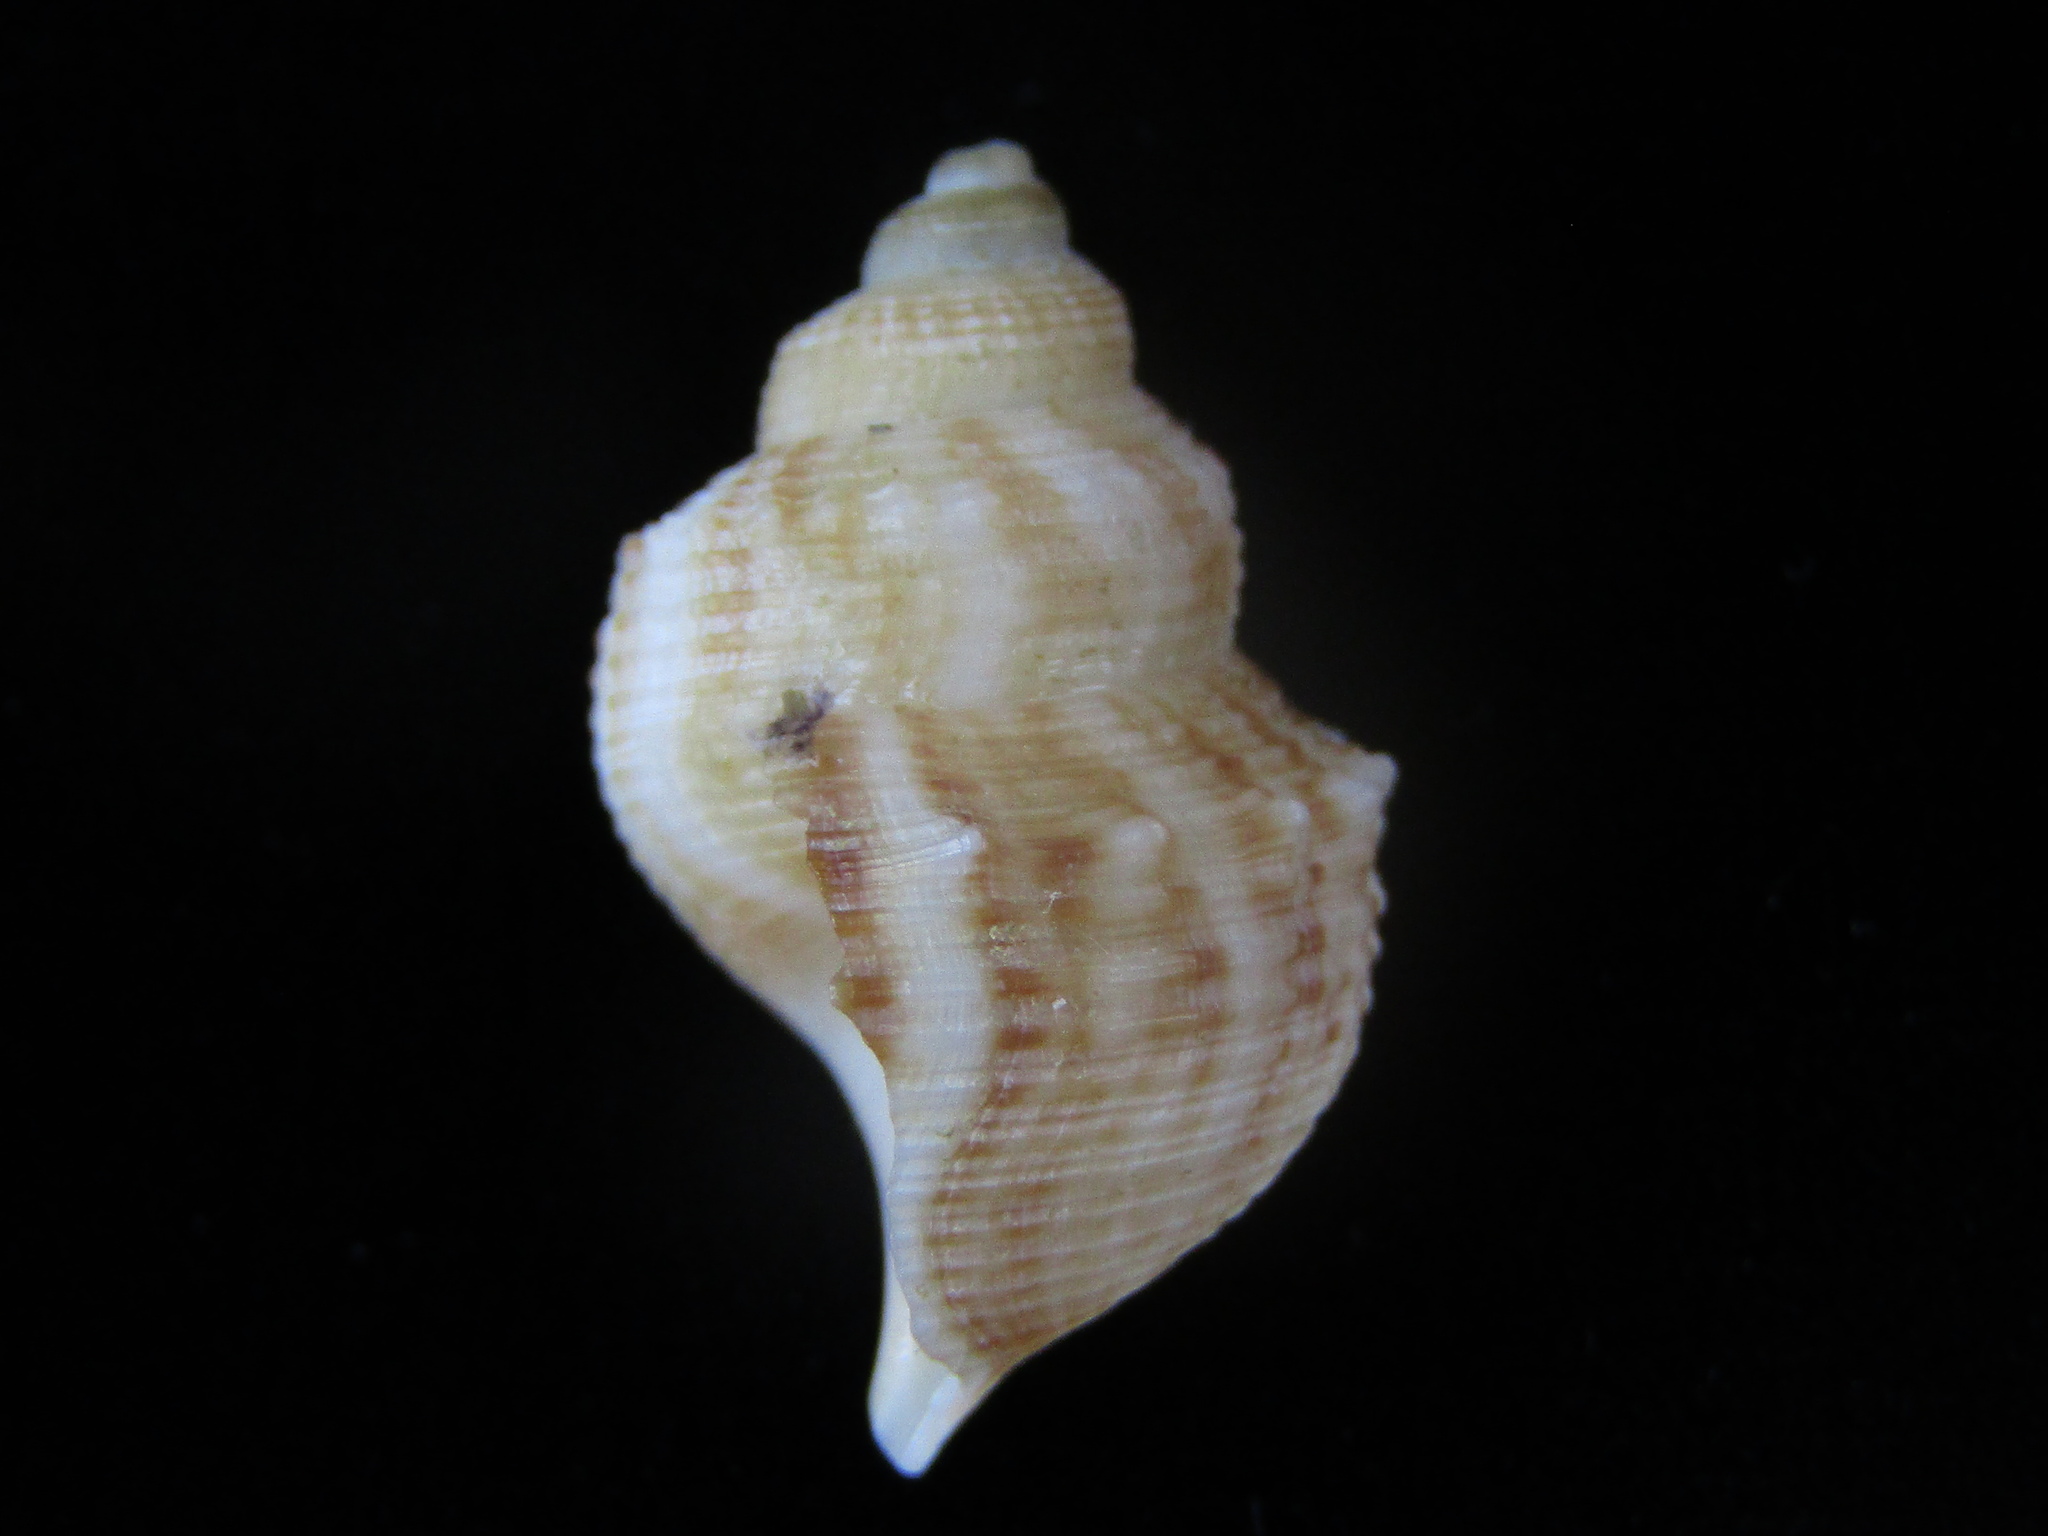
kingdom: Animalia
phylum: Mollusca
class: Gastropoda
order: Littorinimorpha
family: Struthiolariidae
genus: Struthiolaria
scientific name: Struthiolaria papulosa
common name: Large ostrich foot
